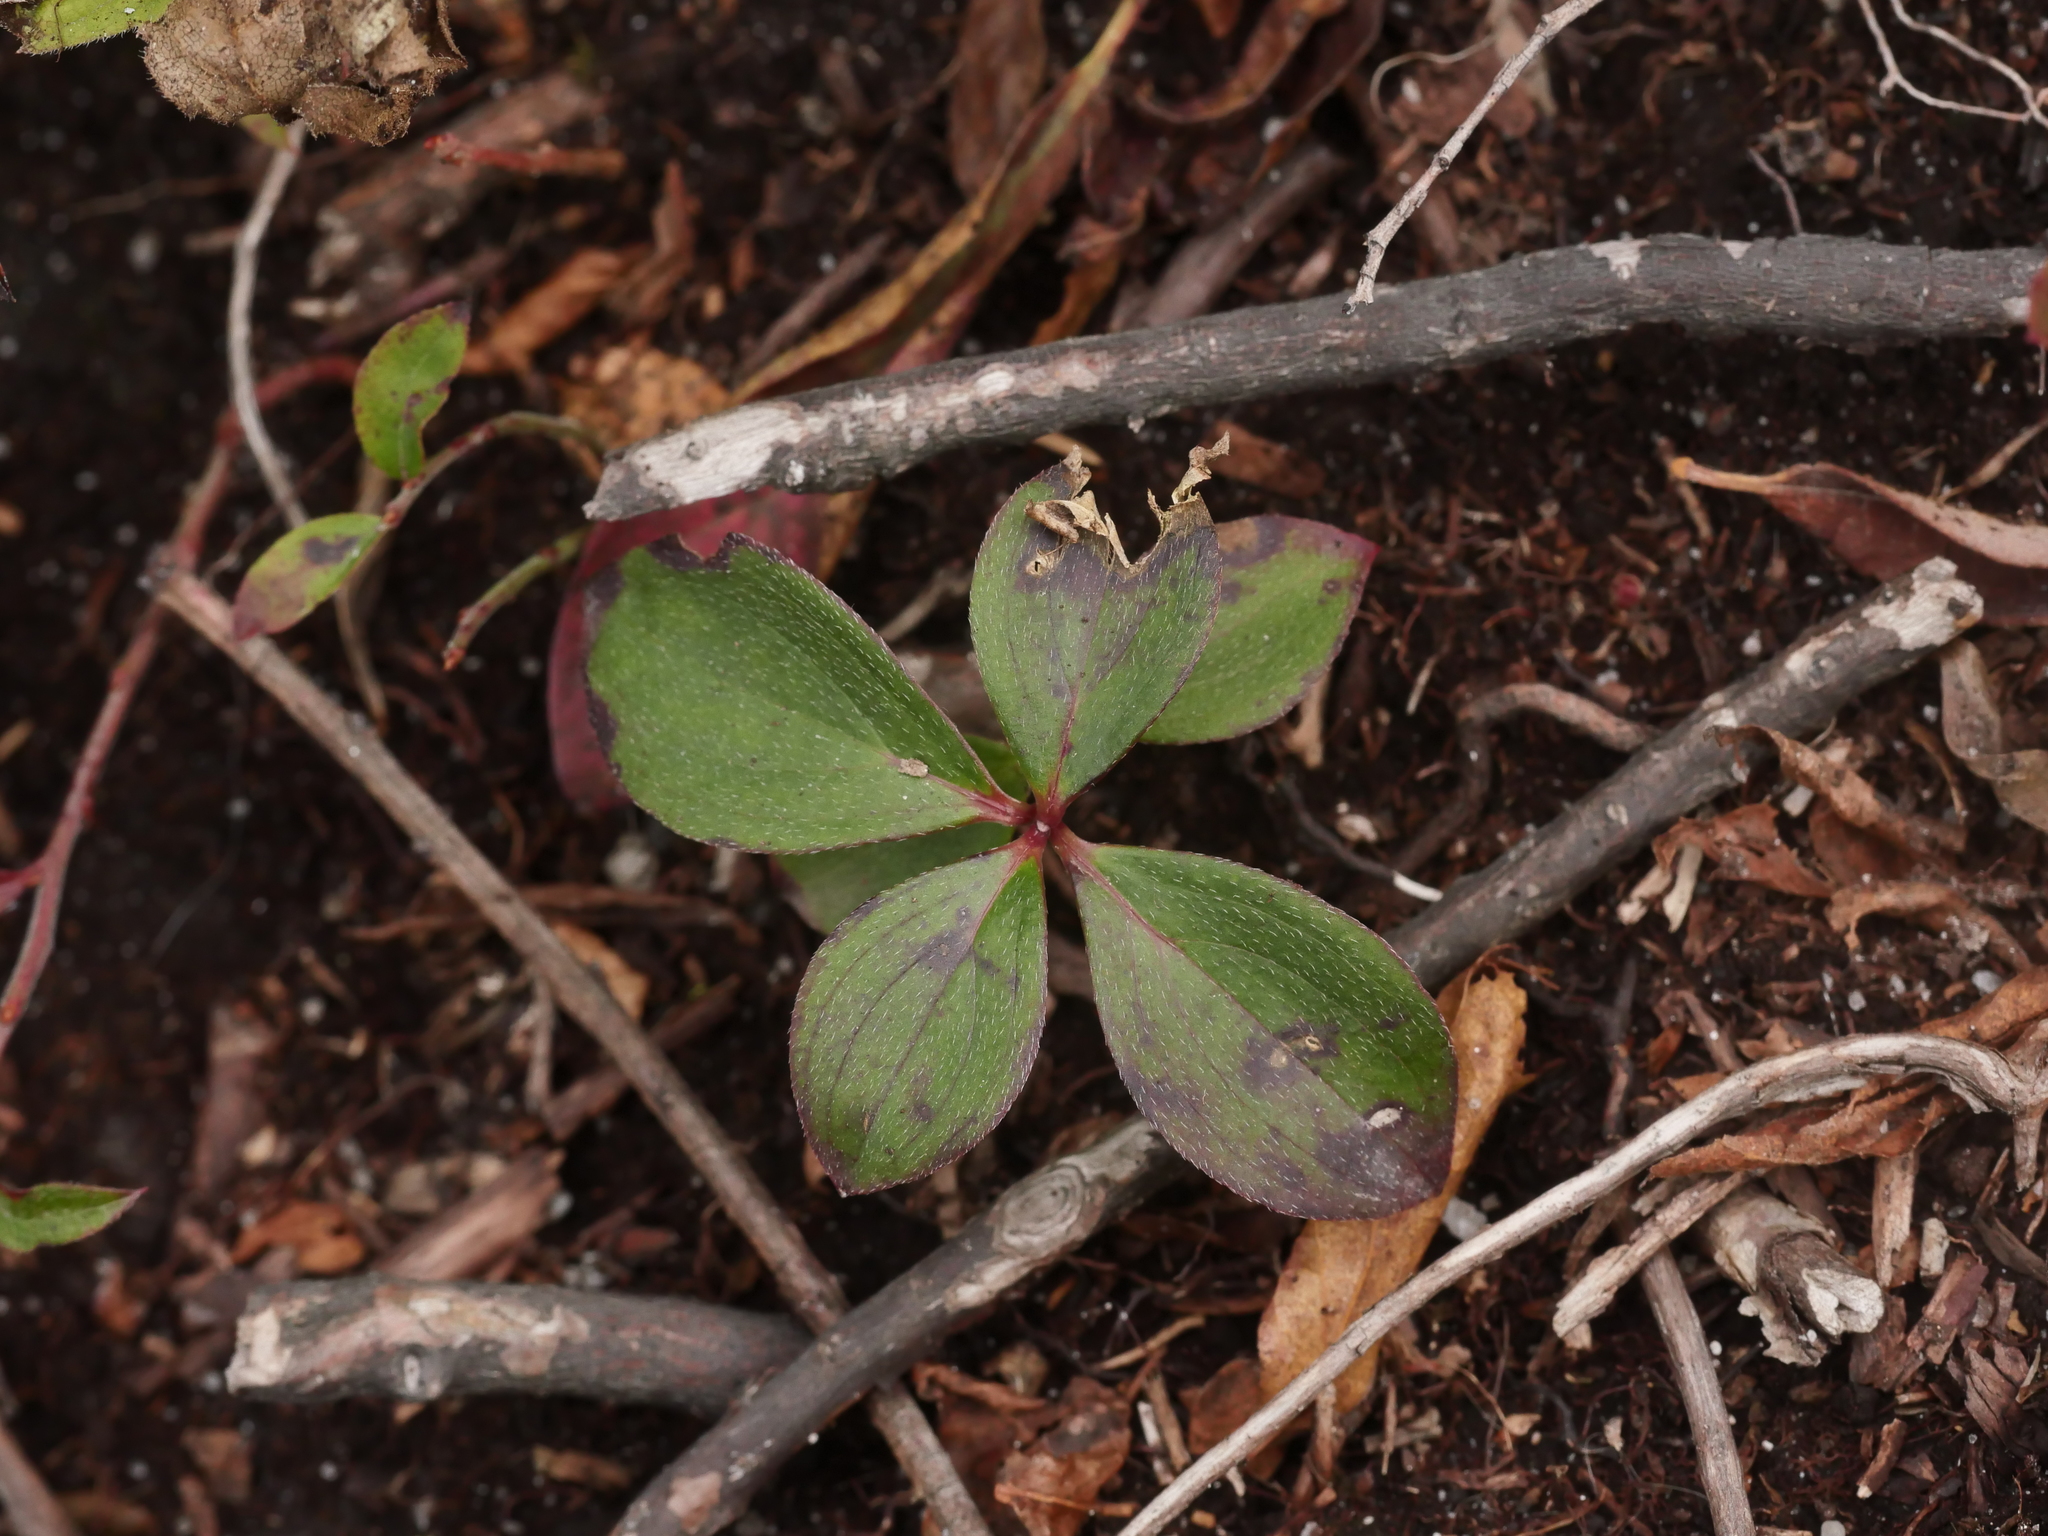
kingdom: Plantae
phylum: Tracheophyta
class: Magnoliopsida
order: Cornales
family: Cornaceae
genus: Cornus
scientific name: Cornus canadensis
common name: Creeping dogwood
